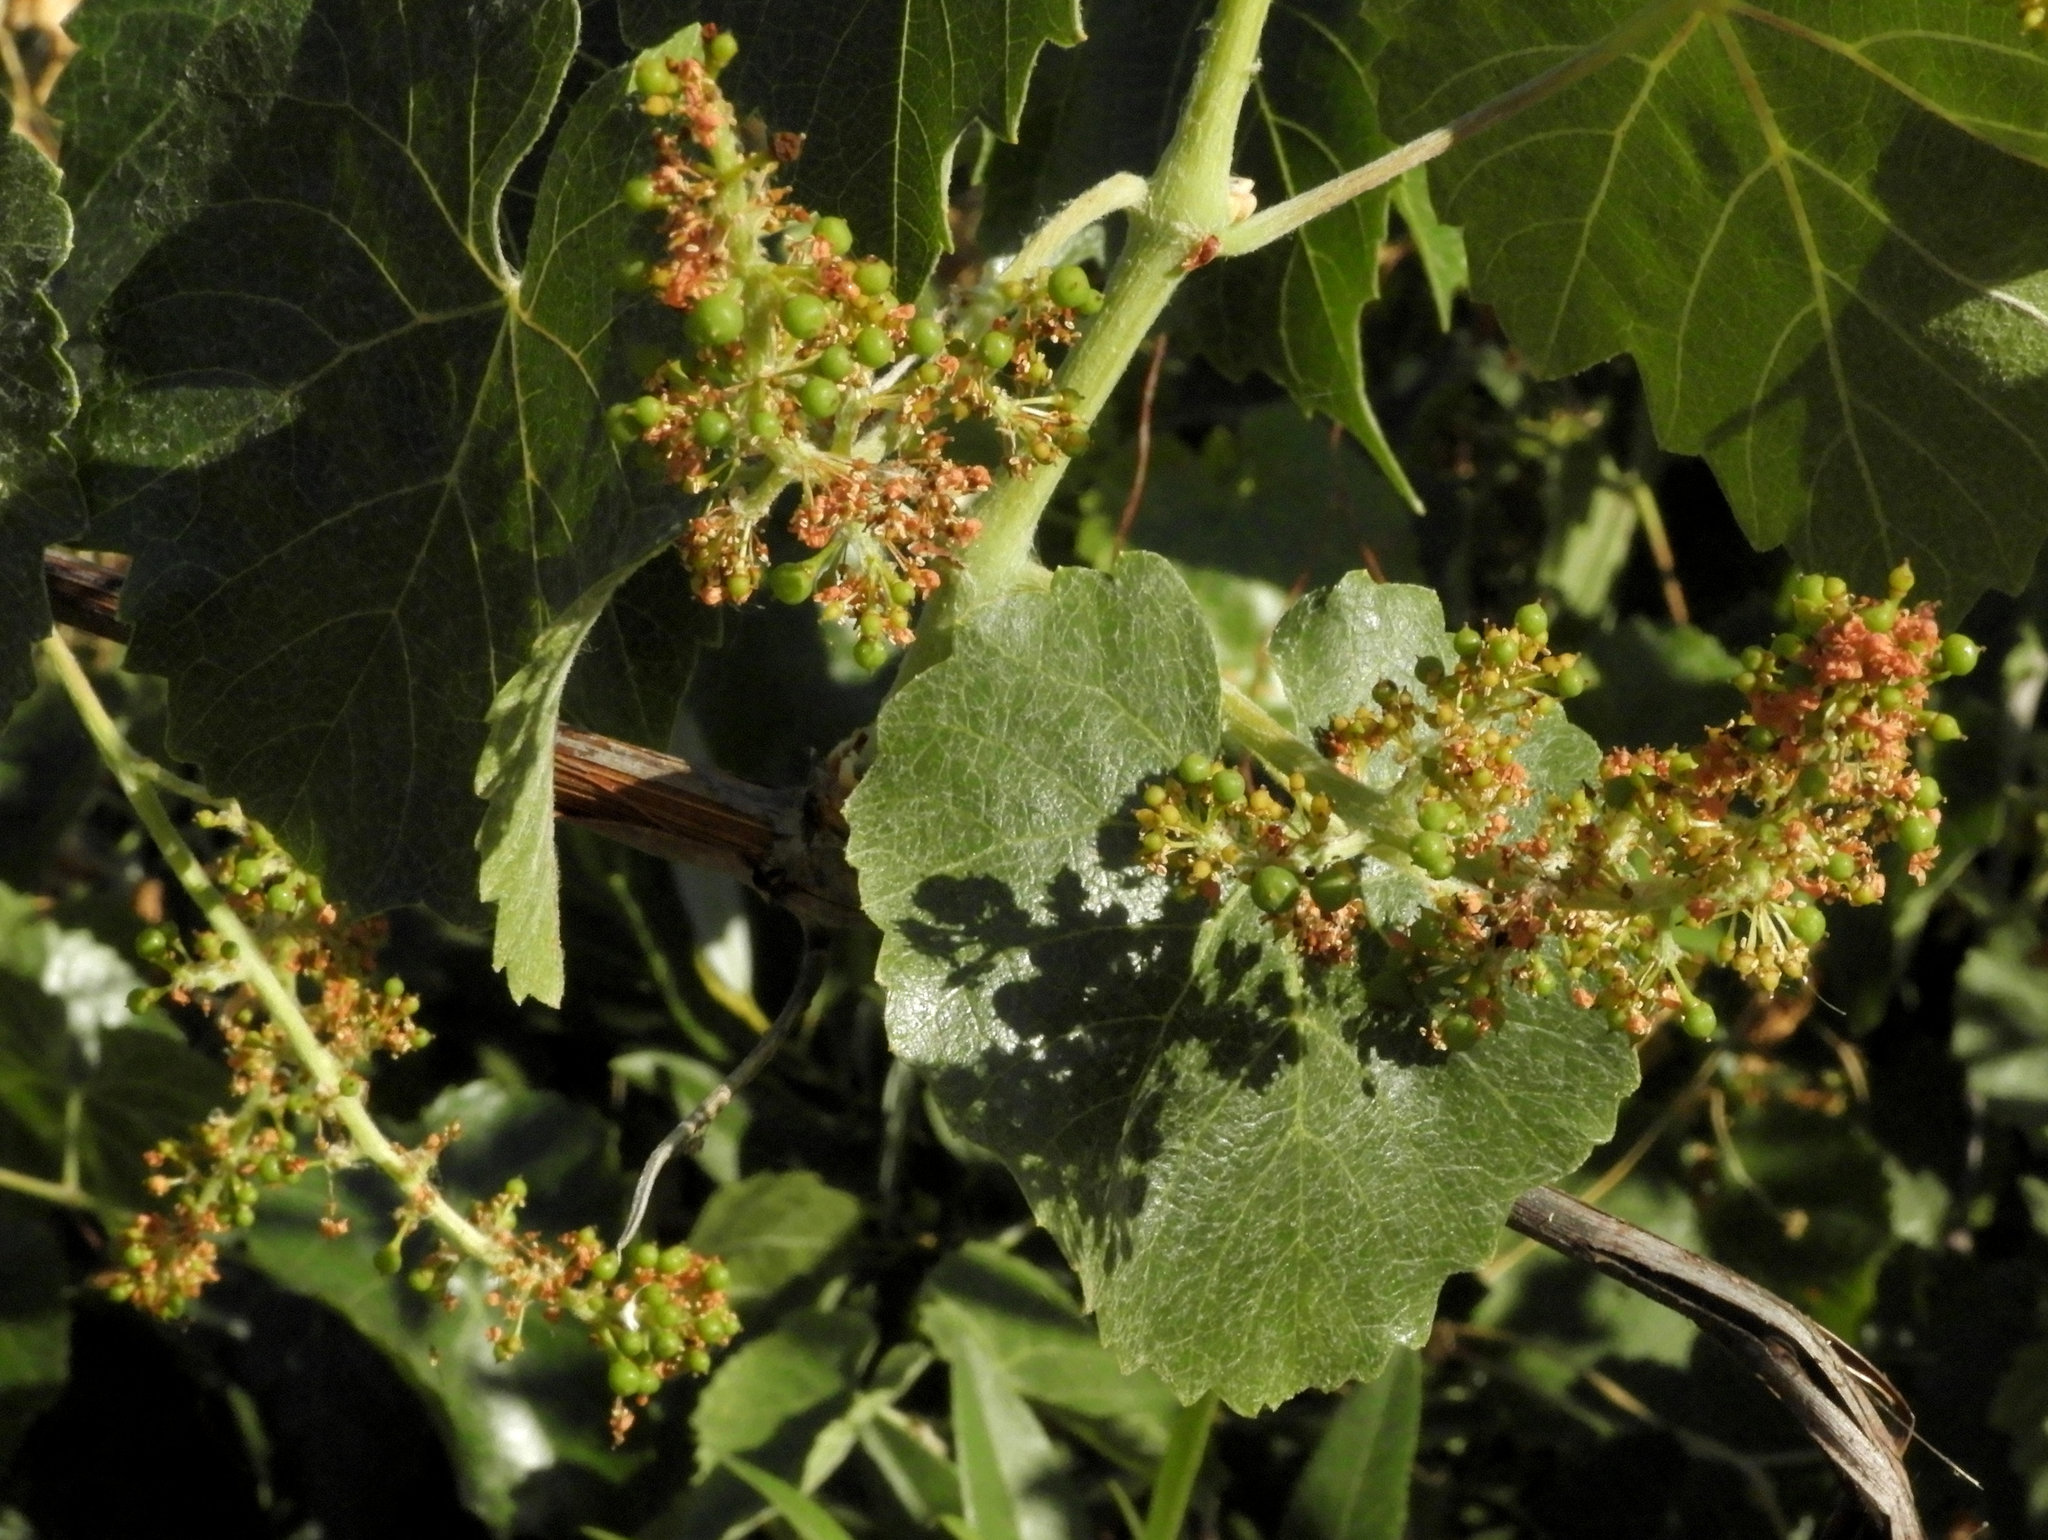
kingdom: Plantae
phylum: Tracheophyta
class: Magnoliopsida
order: Vitales
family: Vitaceae
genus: Vitis
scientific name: Vitis californica
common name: California wild grape
